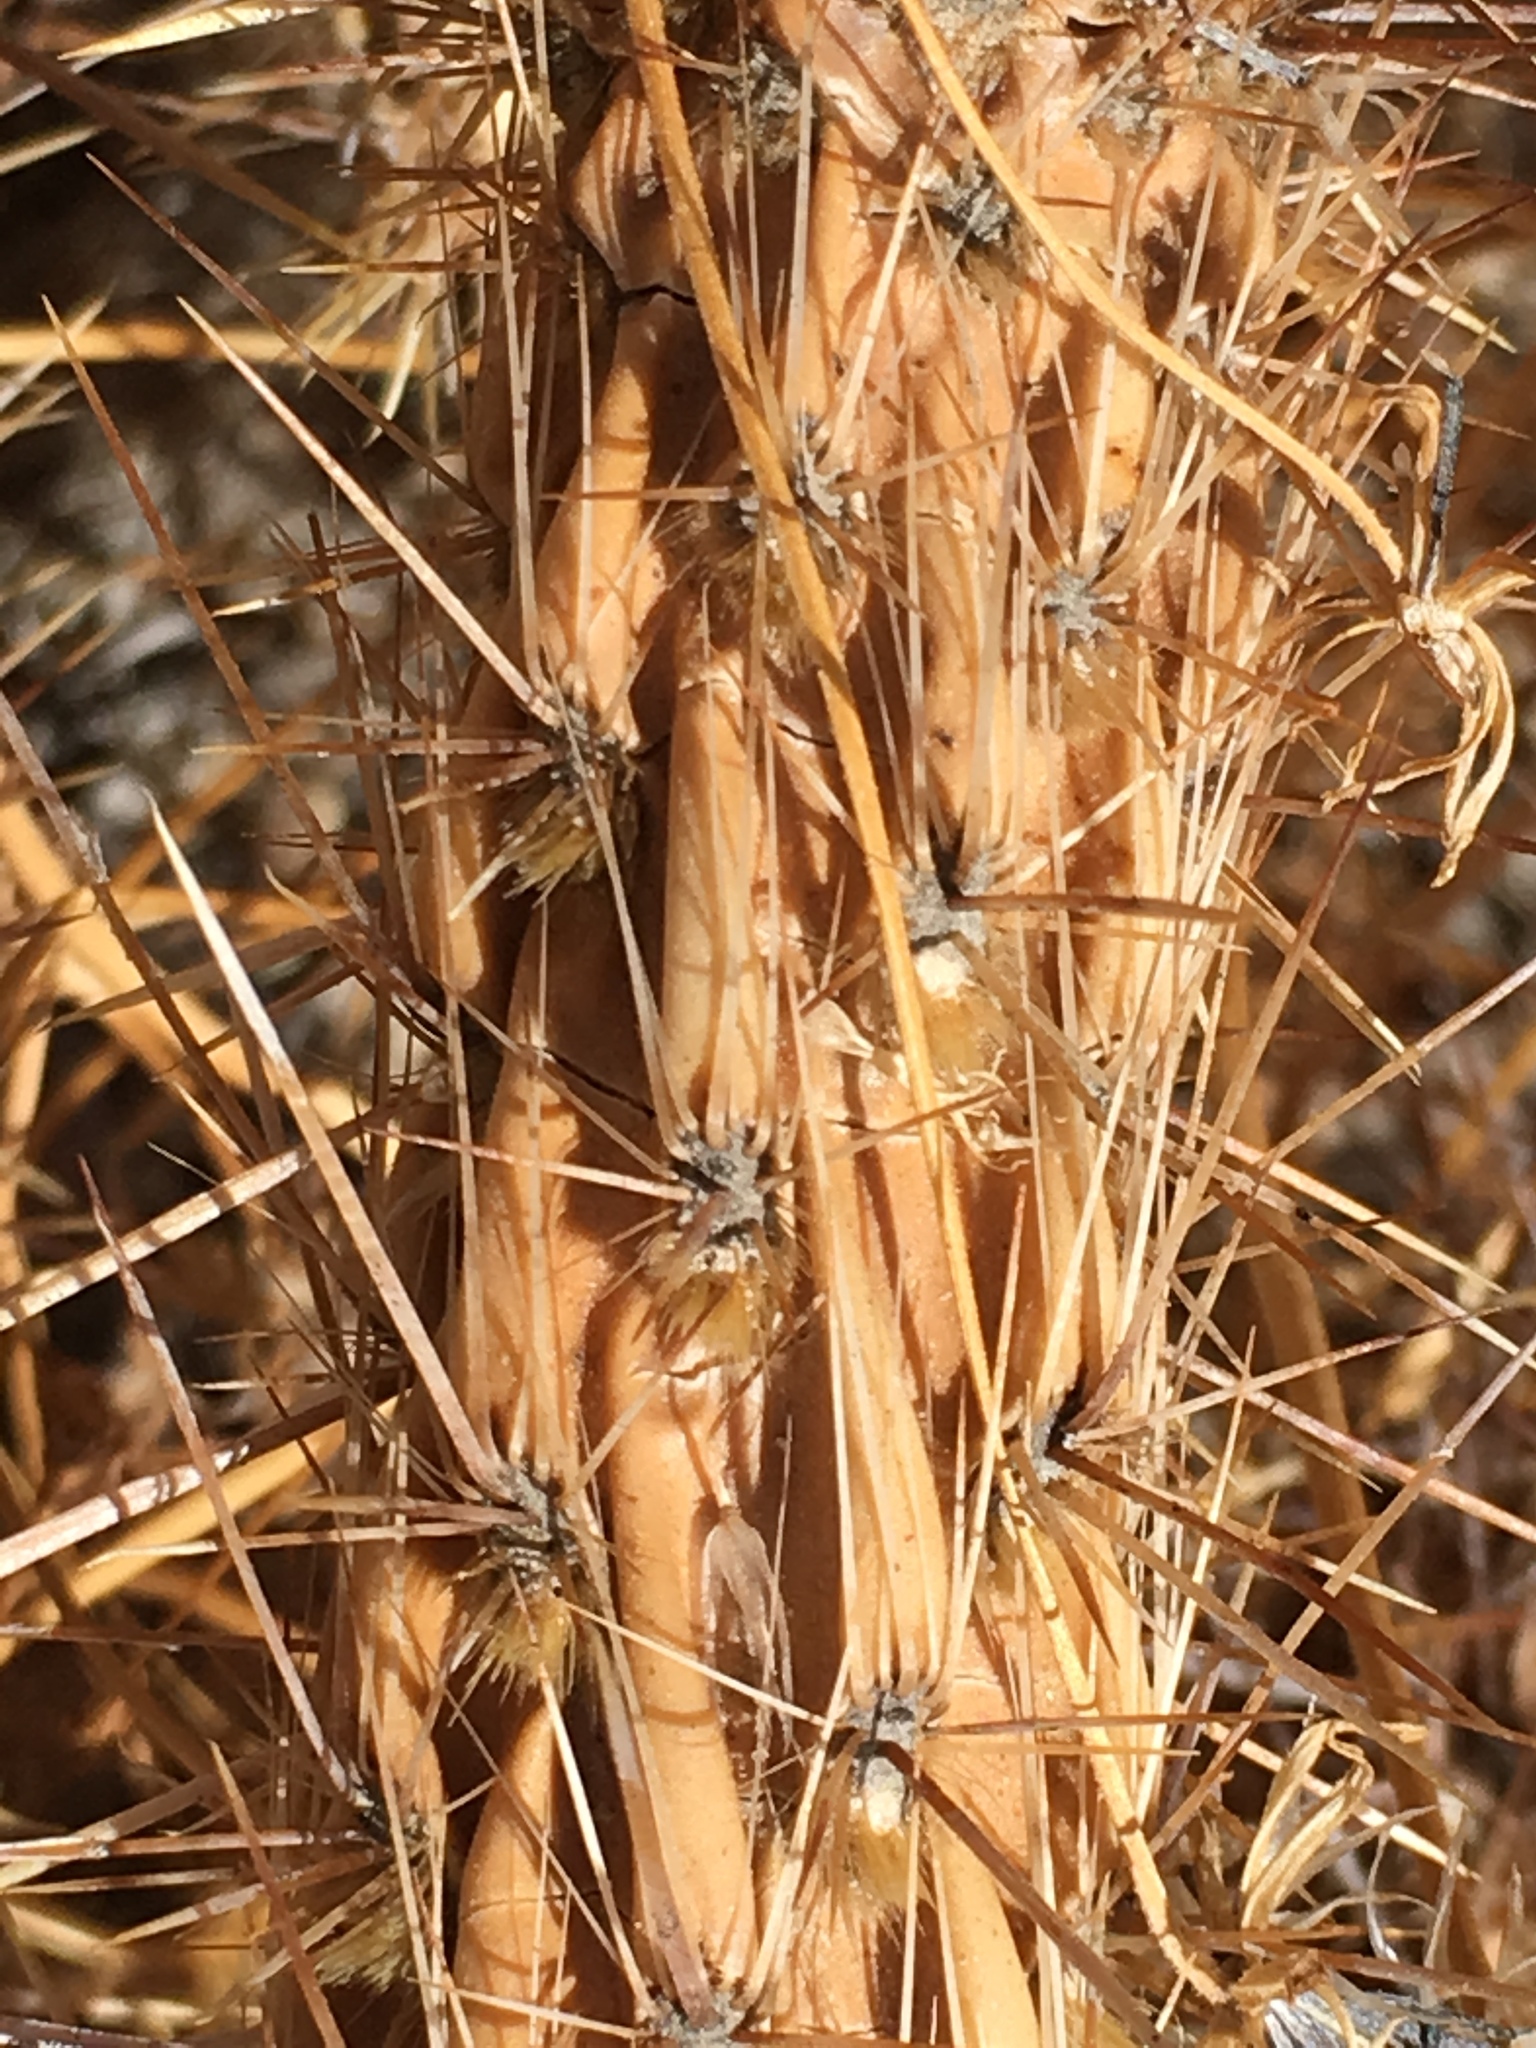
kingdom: Plantae
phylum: Tracheophyta
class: Magnoliopsida
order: Caryophyllales
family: Cactaceae
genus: Cylindropuntia
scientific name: Cylindropuntia ganderi
